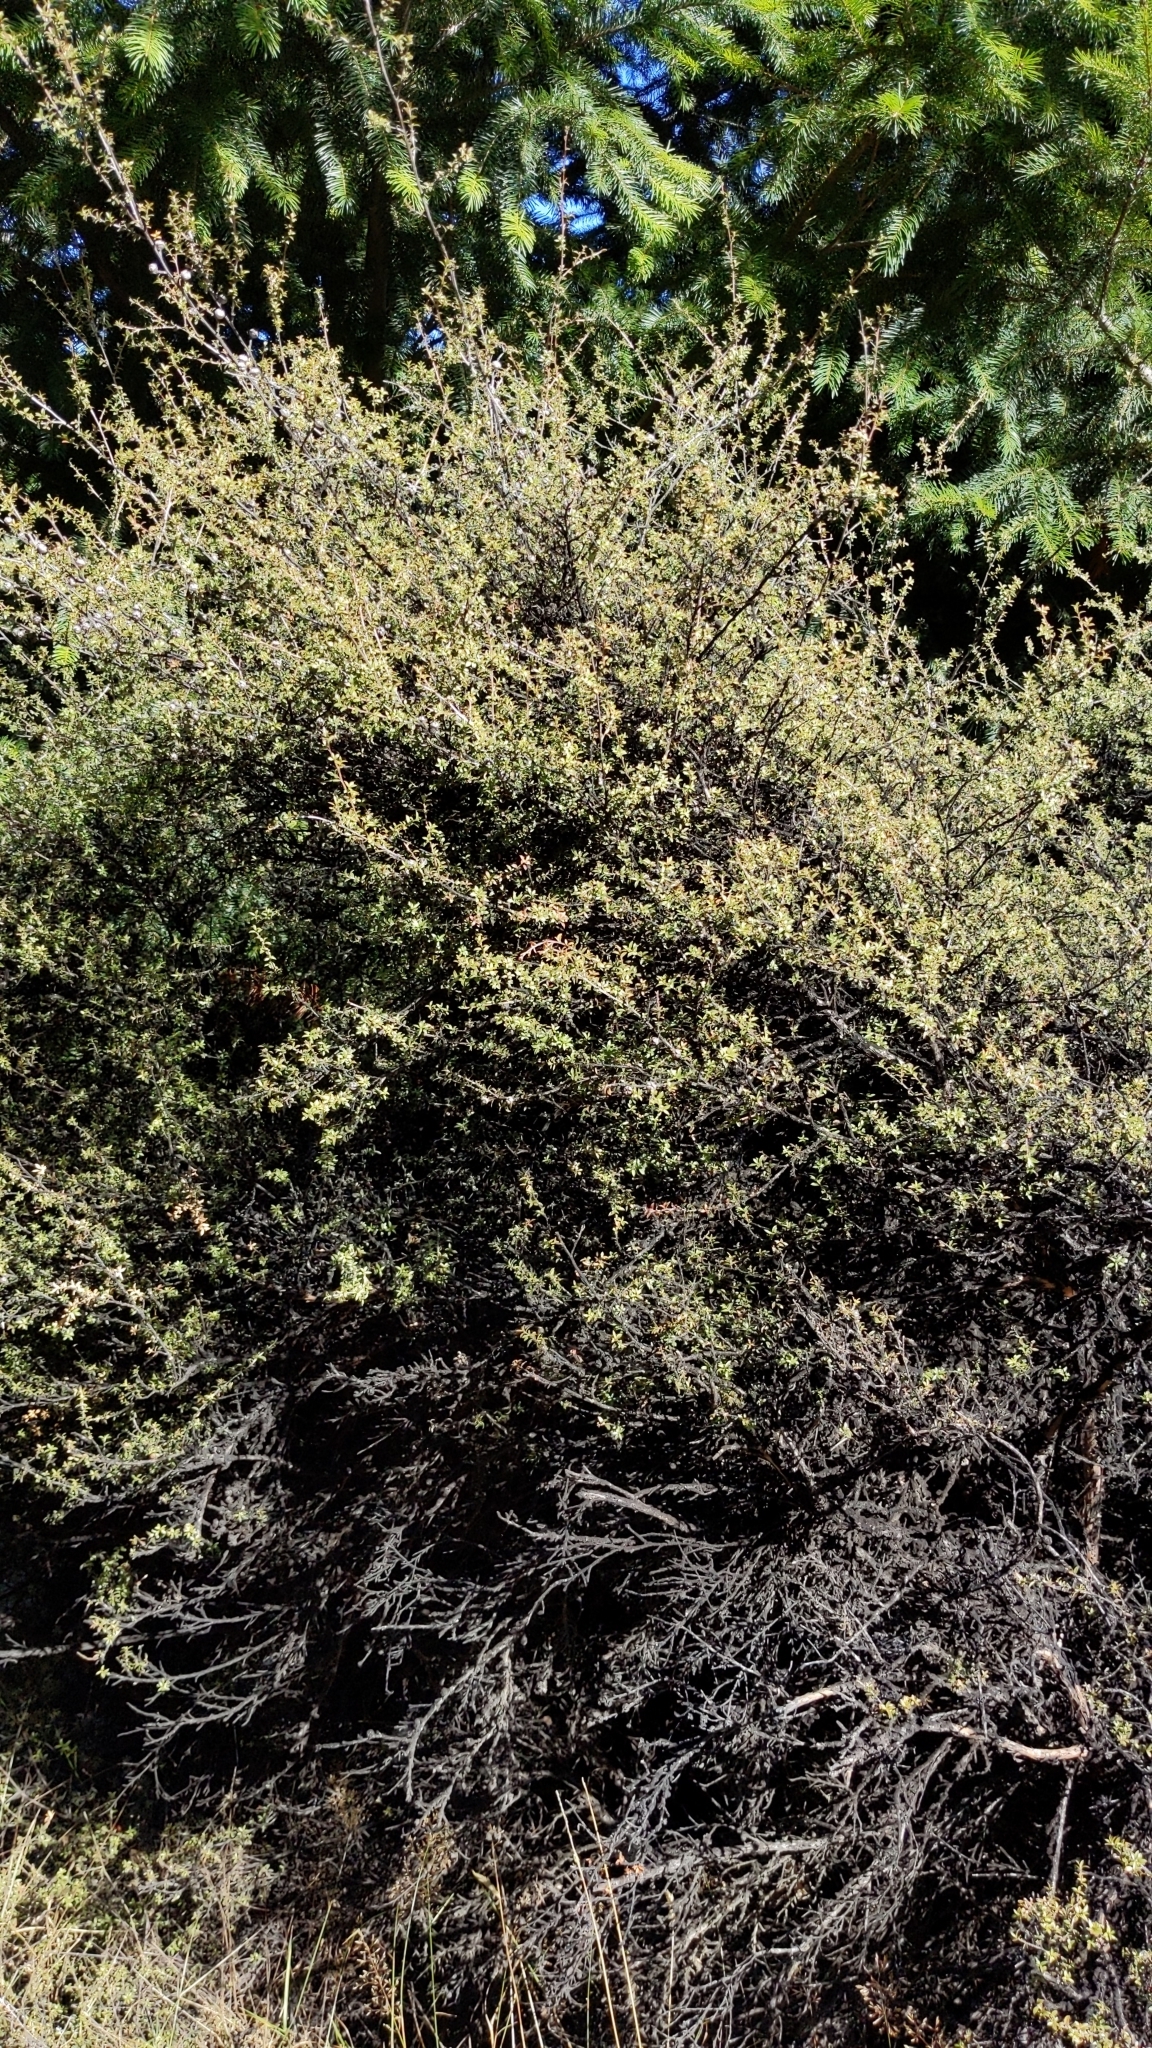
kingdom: Plantae
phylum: Tracheophyta
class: Magnoliopsida
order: Myrtales
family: Myrtaceae
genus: Leptospermum
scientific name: Leptospermum scoparium
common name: Broom tea-tree
